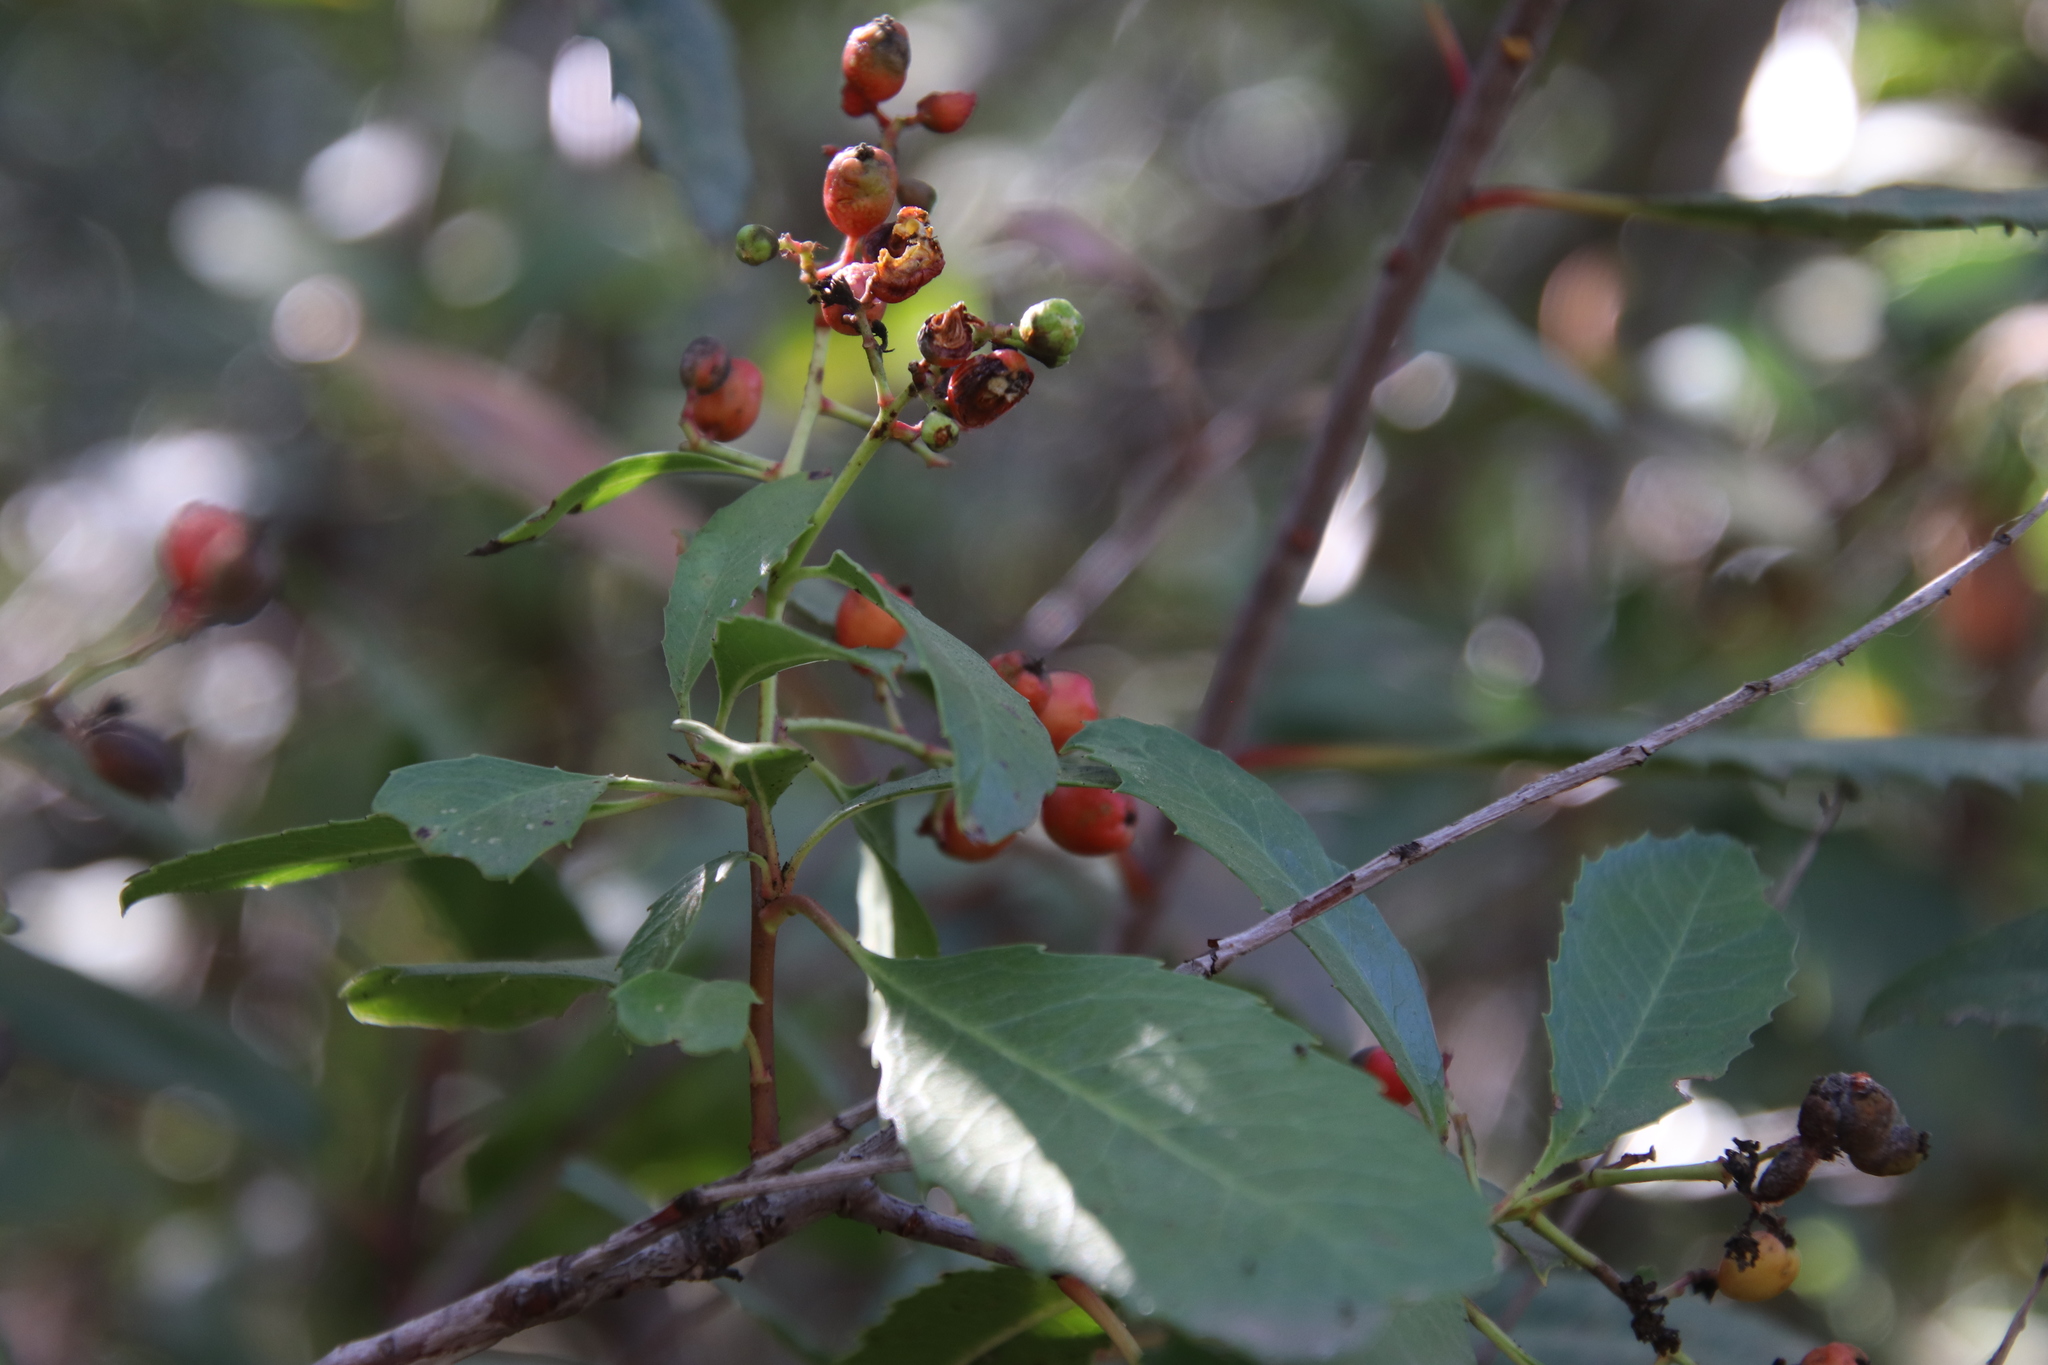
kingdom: Plantae
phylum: Tracheophyta
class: Magnoliopsida
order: Rosales
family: Rosaceae
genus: Heteromeles
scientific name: Heteromeles arbutifolia
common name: California-holly
